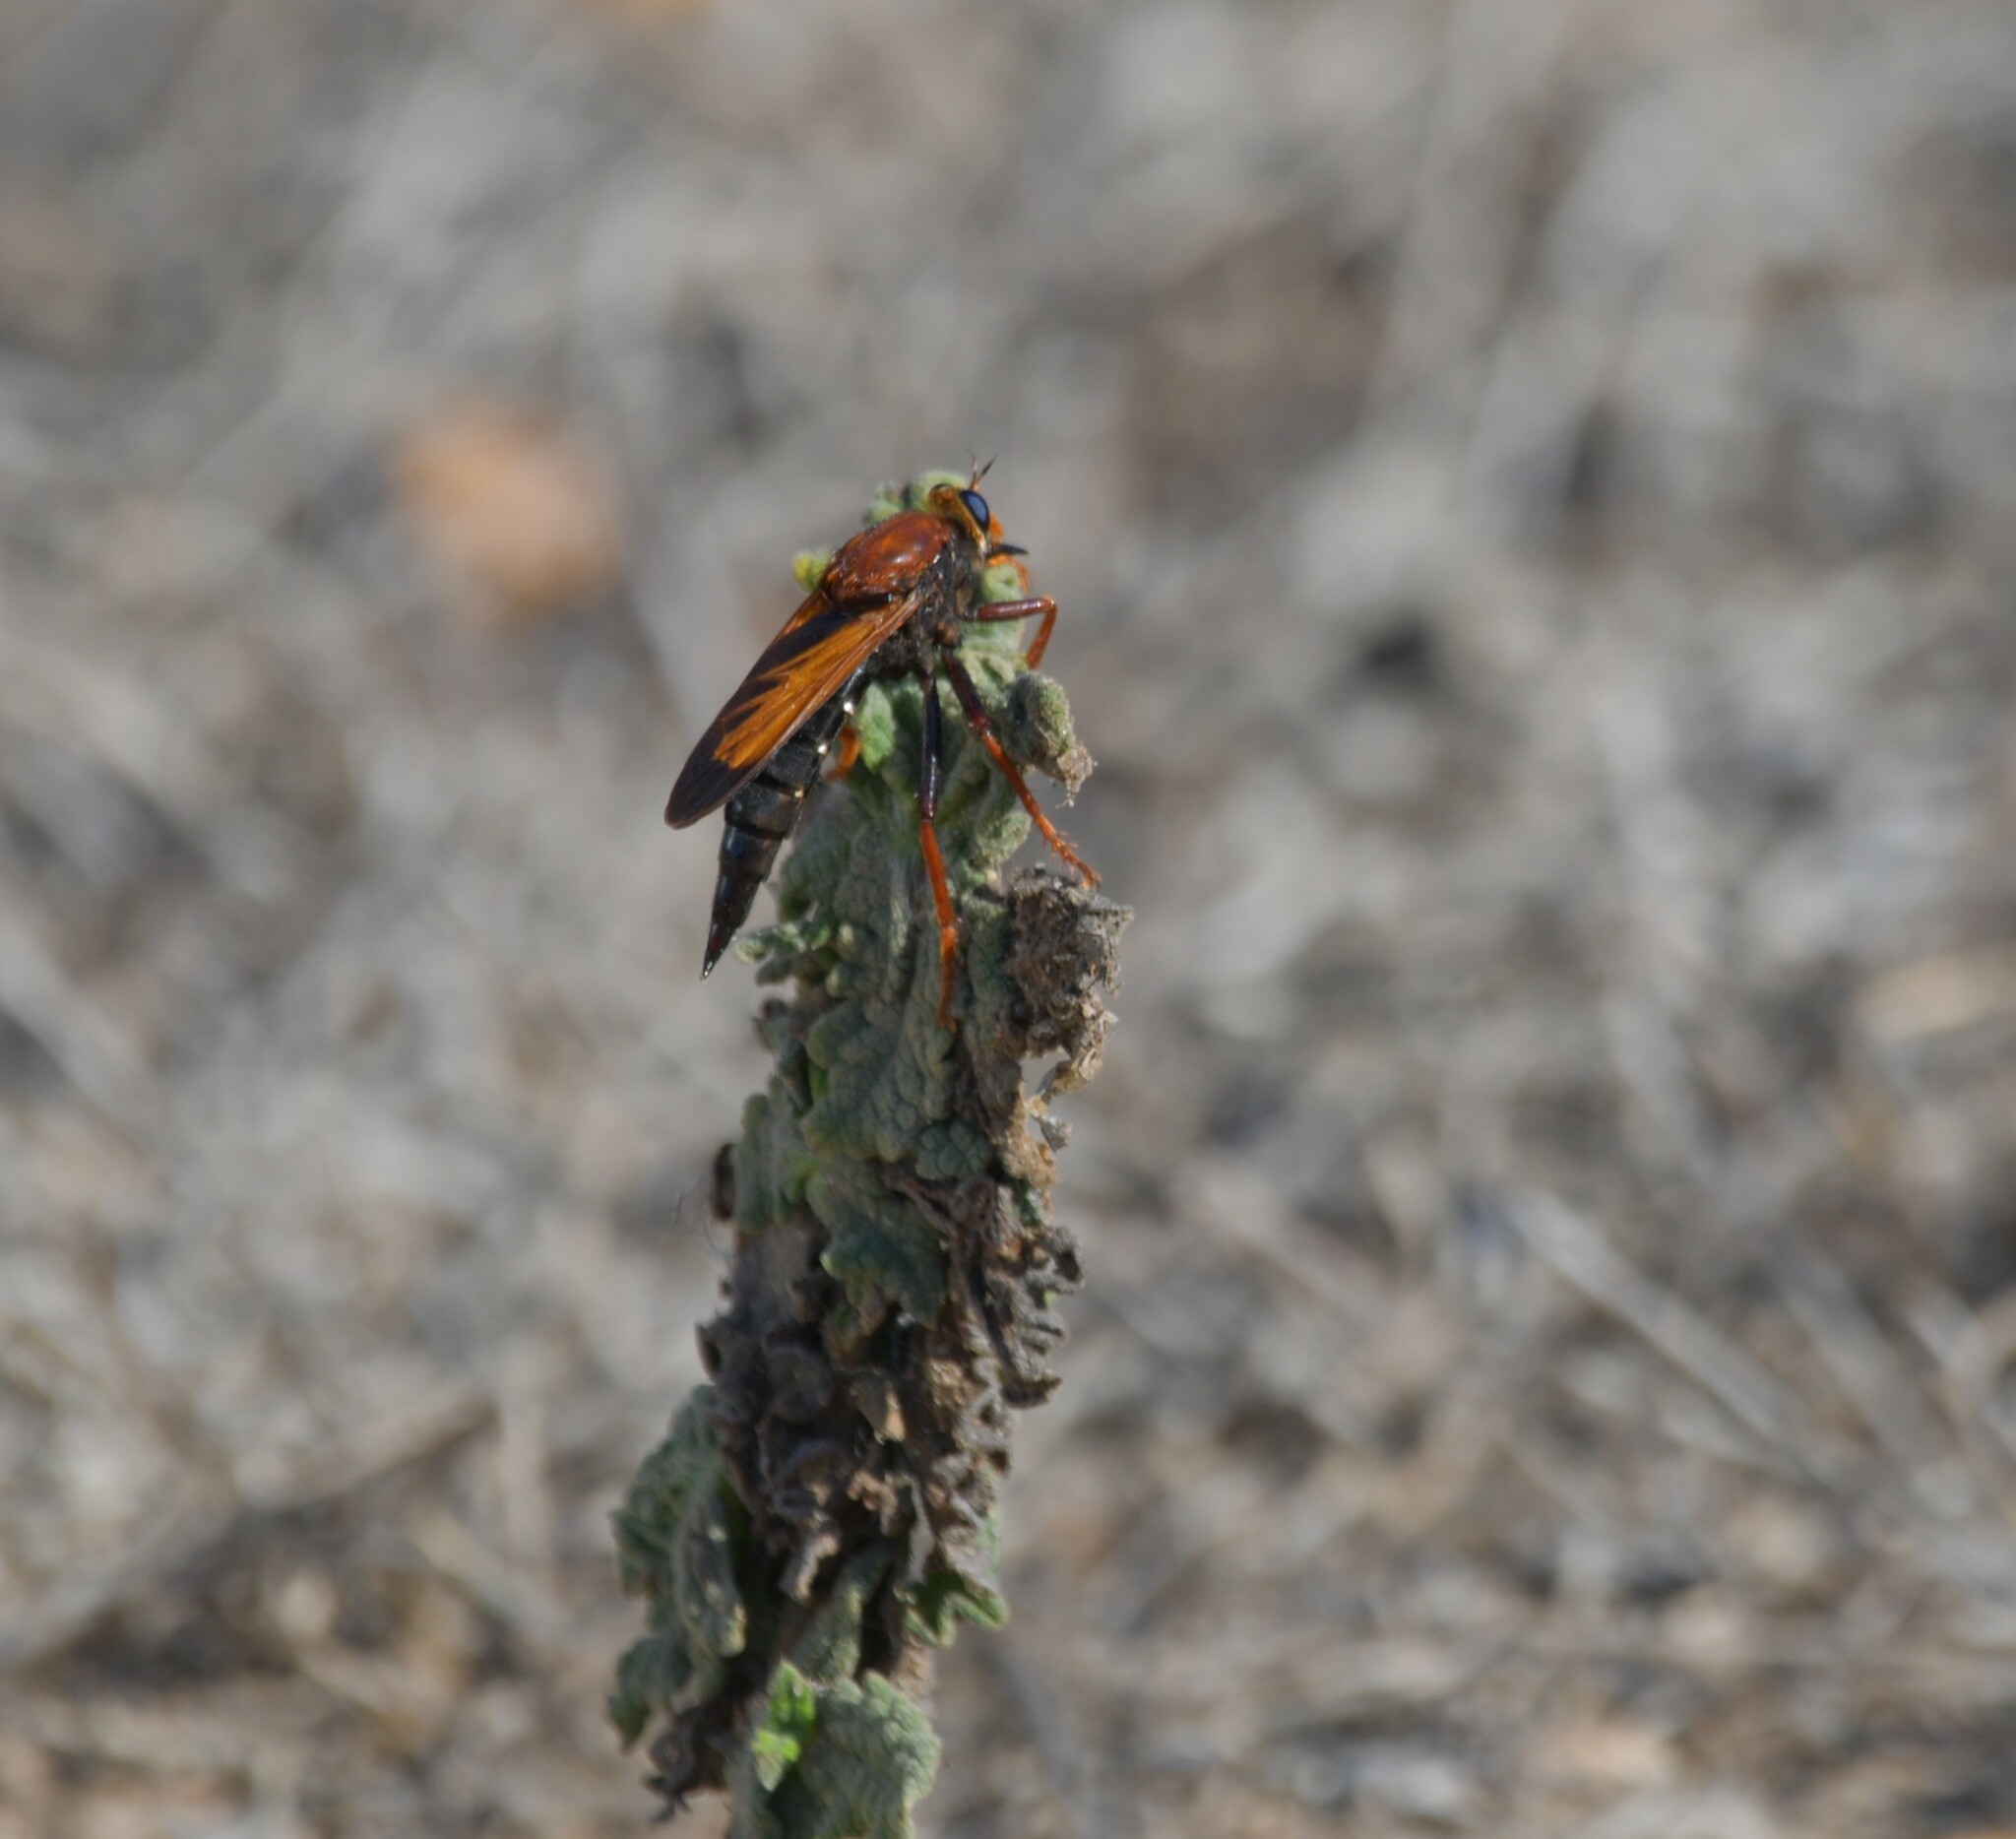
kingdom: Animalia
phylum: Arthropoda
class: Insecta
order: Diptera
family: Asilidae
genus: Asilus
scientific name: Asilus barbarus
